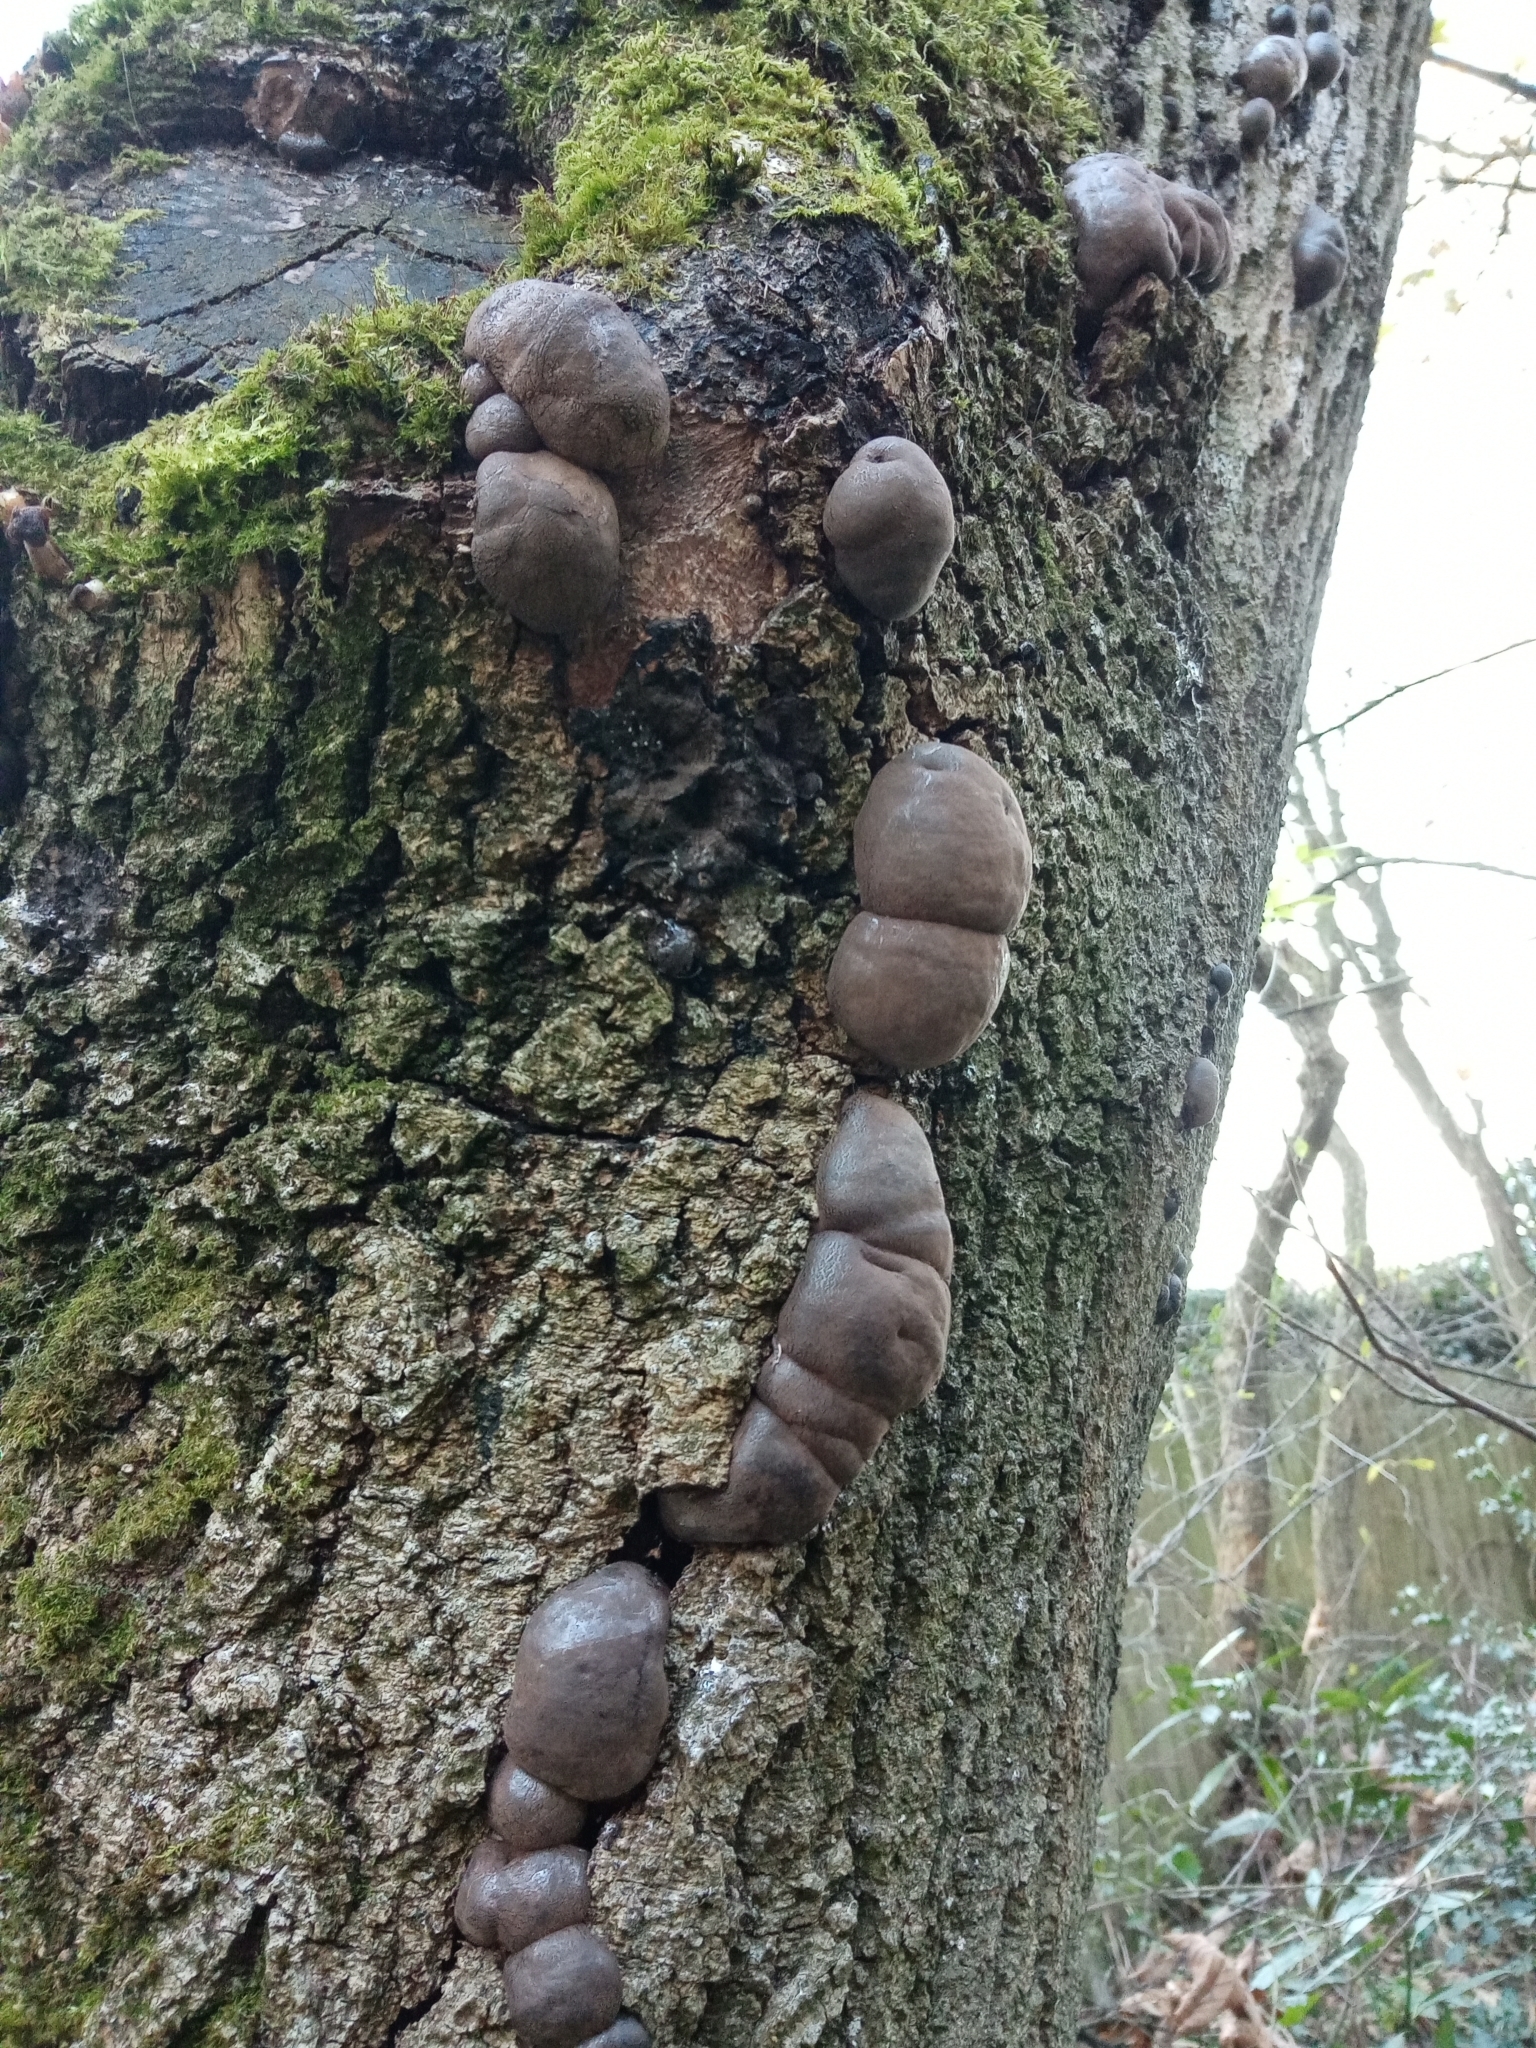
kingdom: Fungi
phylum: Ascomycota
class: Sordariomycetes
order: Xylariales
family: Hypoxylaceae
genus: Daldinia
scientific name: Daldinia concentrica
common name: Cramp balls
